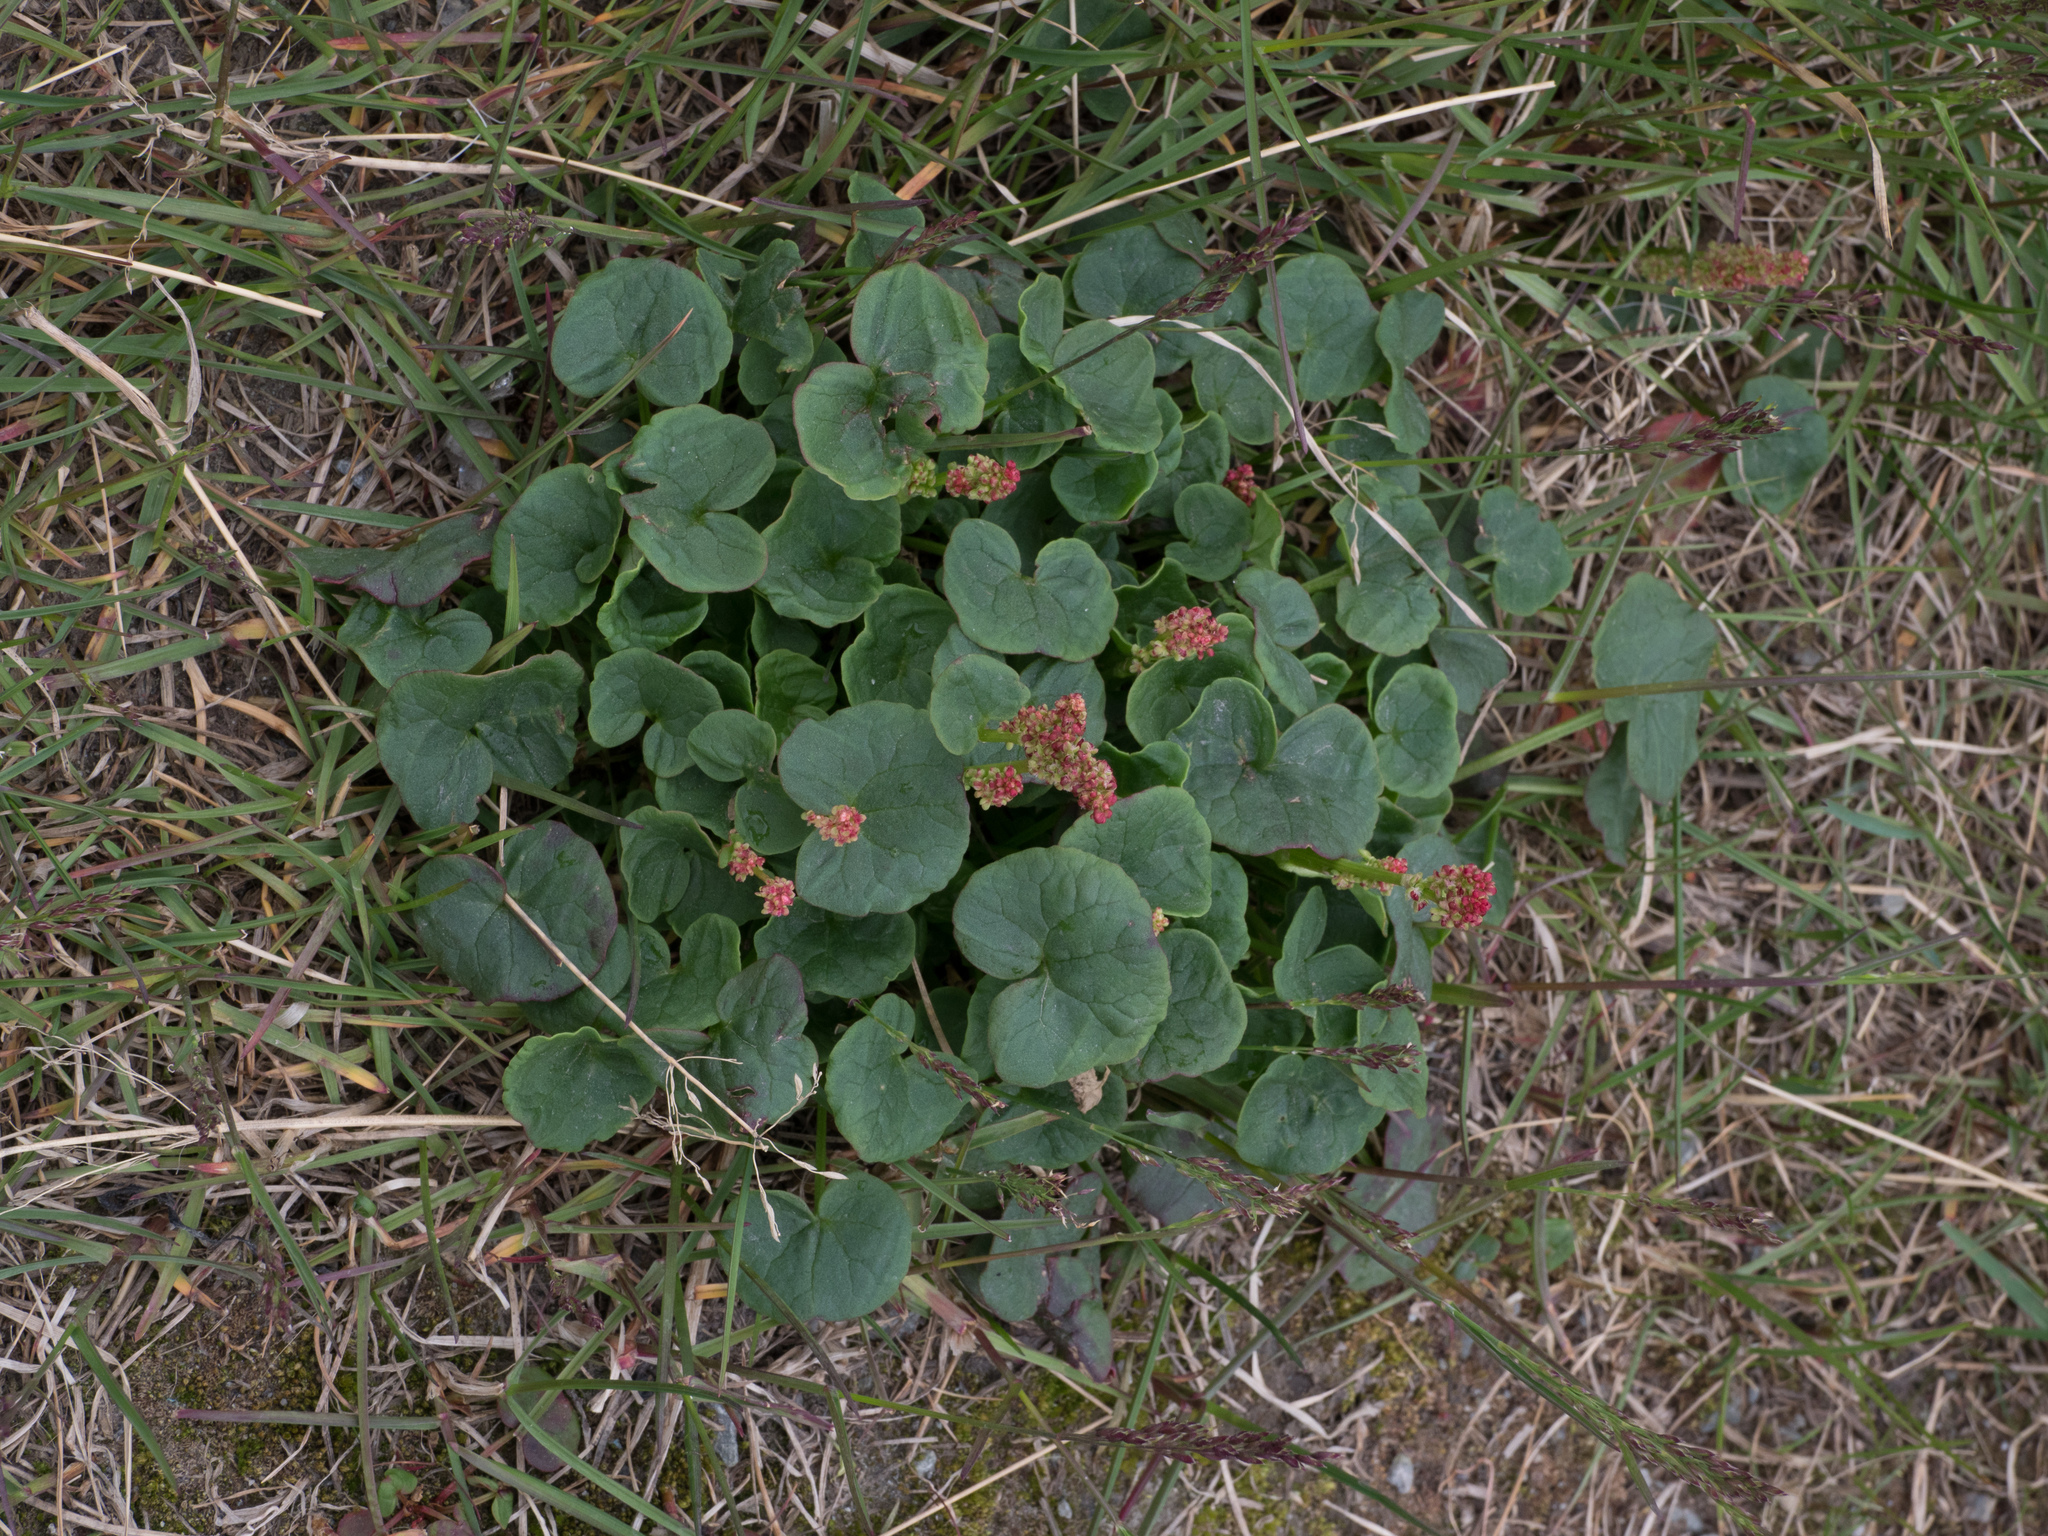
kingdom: Plantae
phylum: Tracheophyta
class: Magnoliopsida
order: Caryophyllales
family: Polygonaceae
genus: Oxyria
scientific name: Oxyria digyna
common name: Alpine mountain-sorrel
